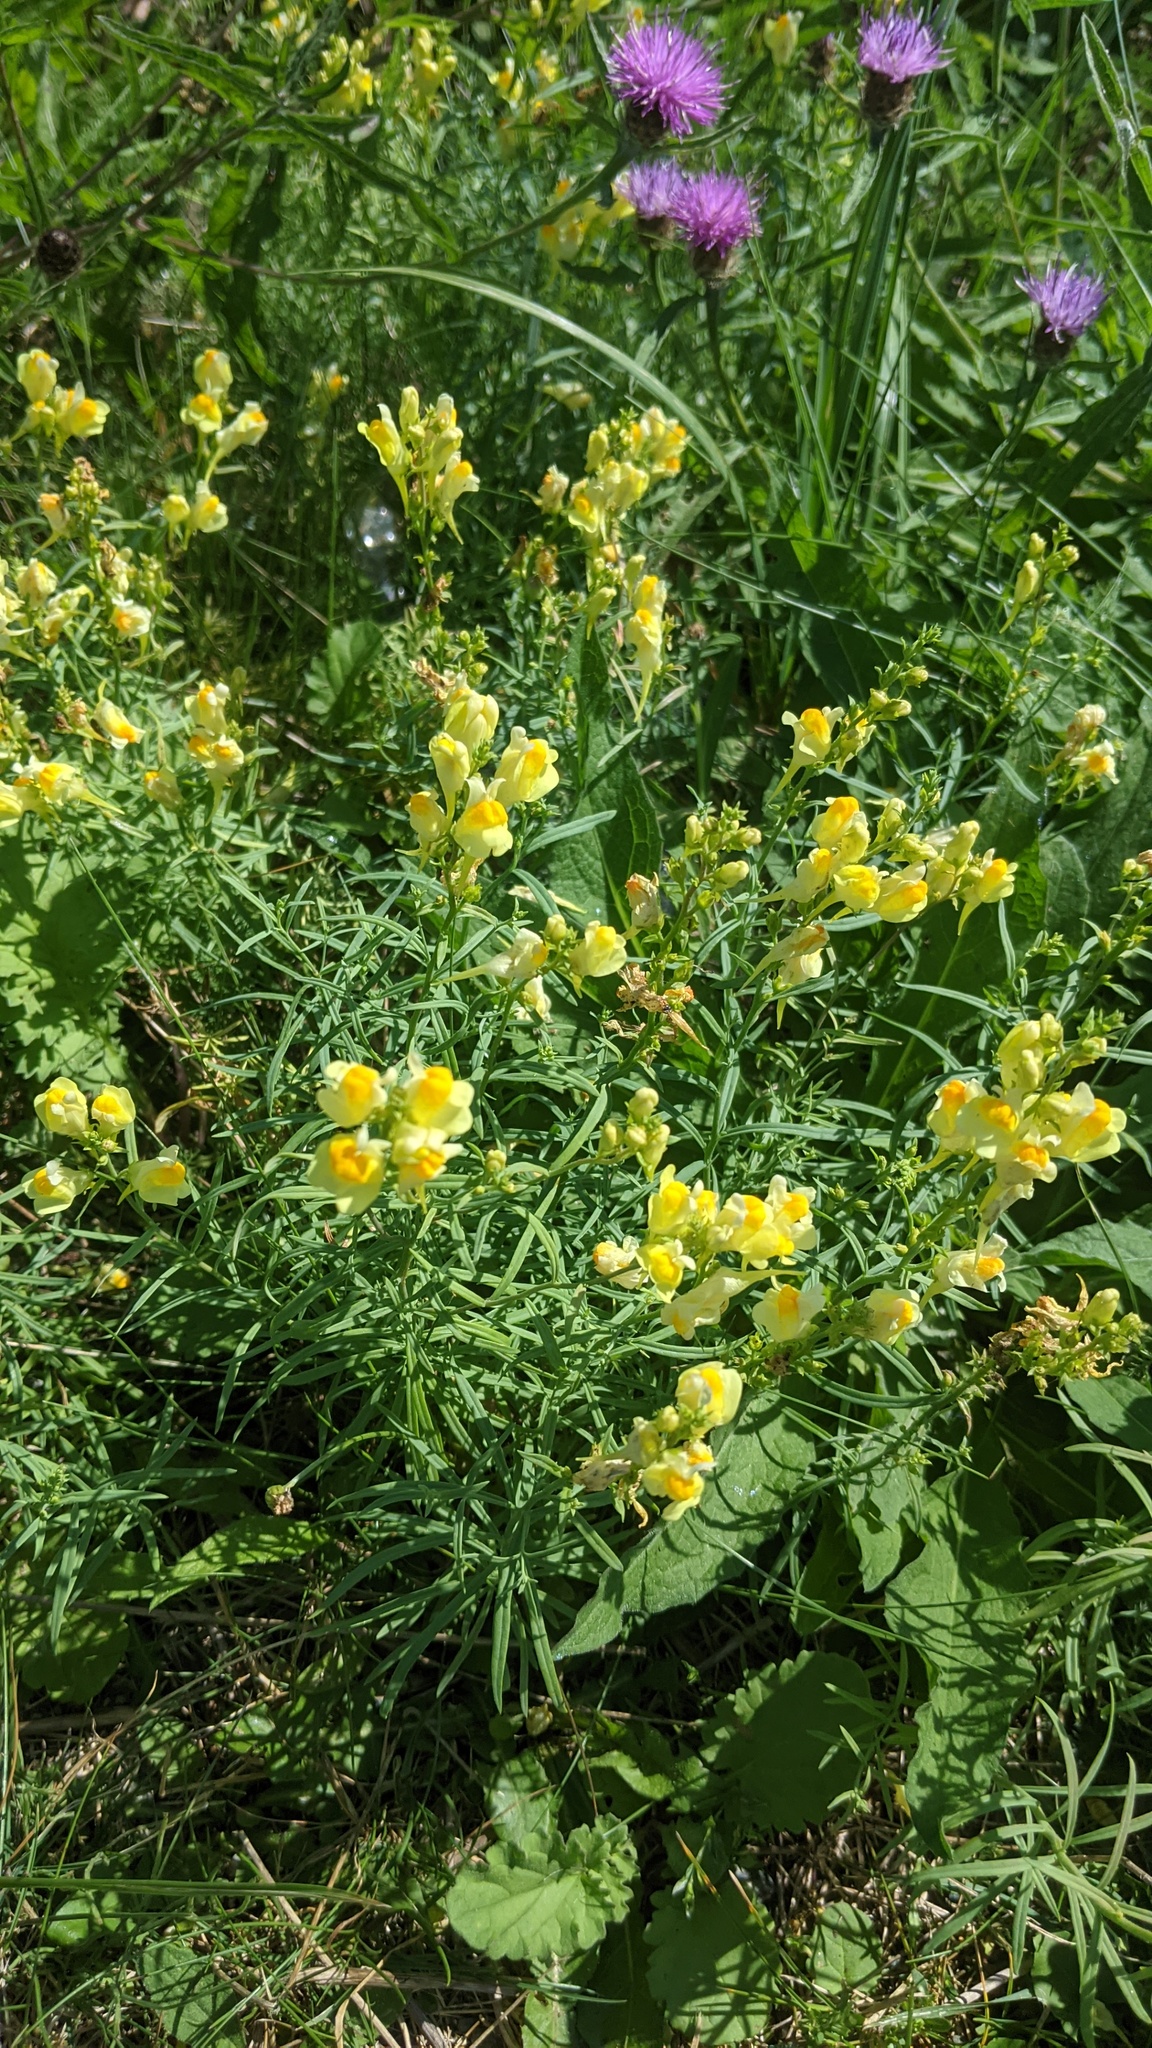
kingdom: Plantae
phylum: Tracheophyta
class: Magnoliopsida
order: Lamiales
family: Plantaginaceae
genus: Linaria
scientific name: Linaria vulgaris
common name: Butter and eggs
